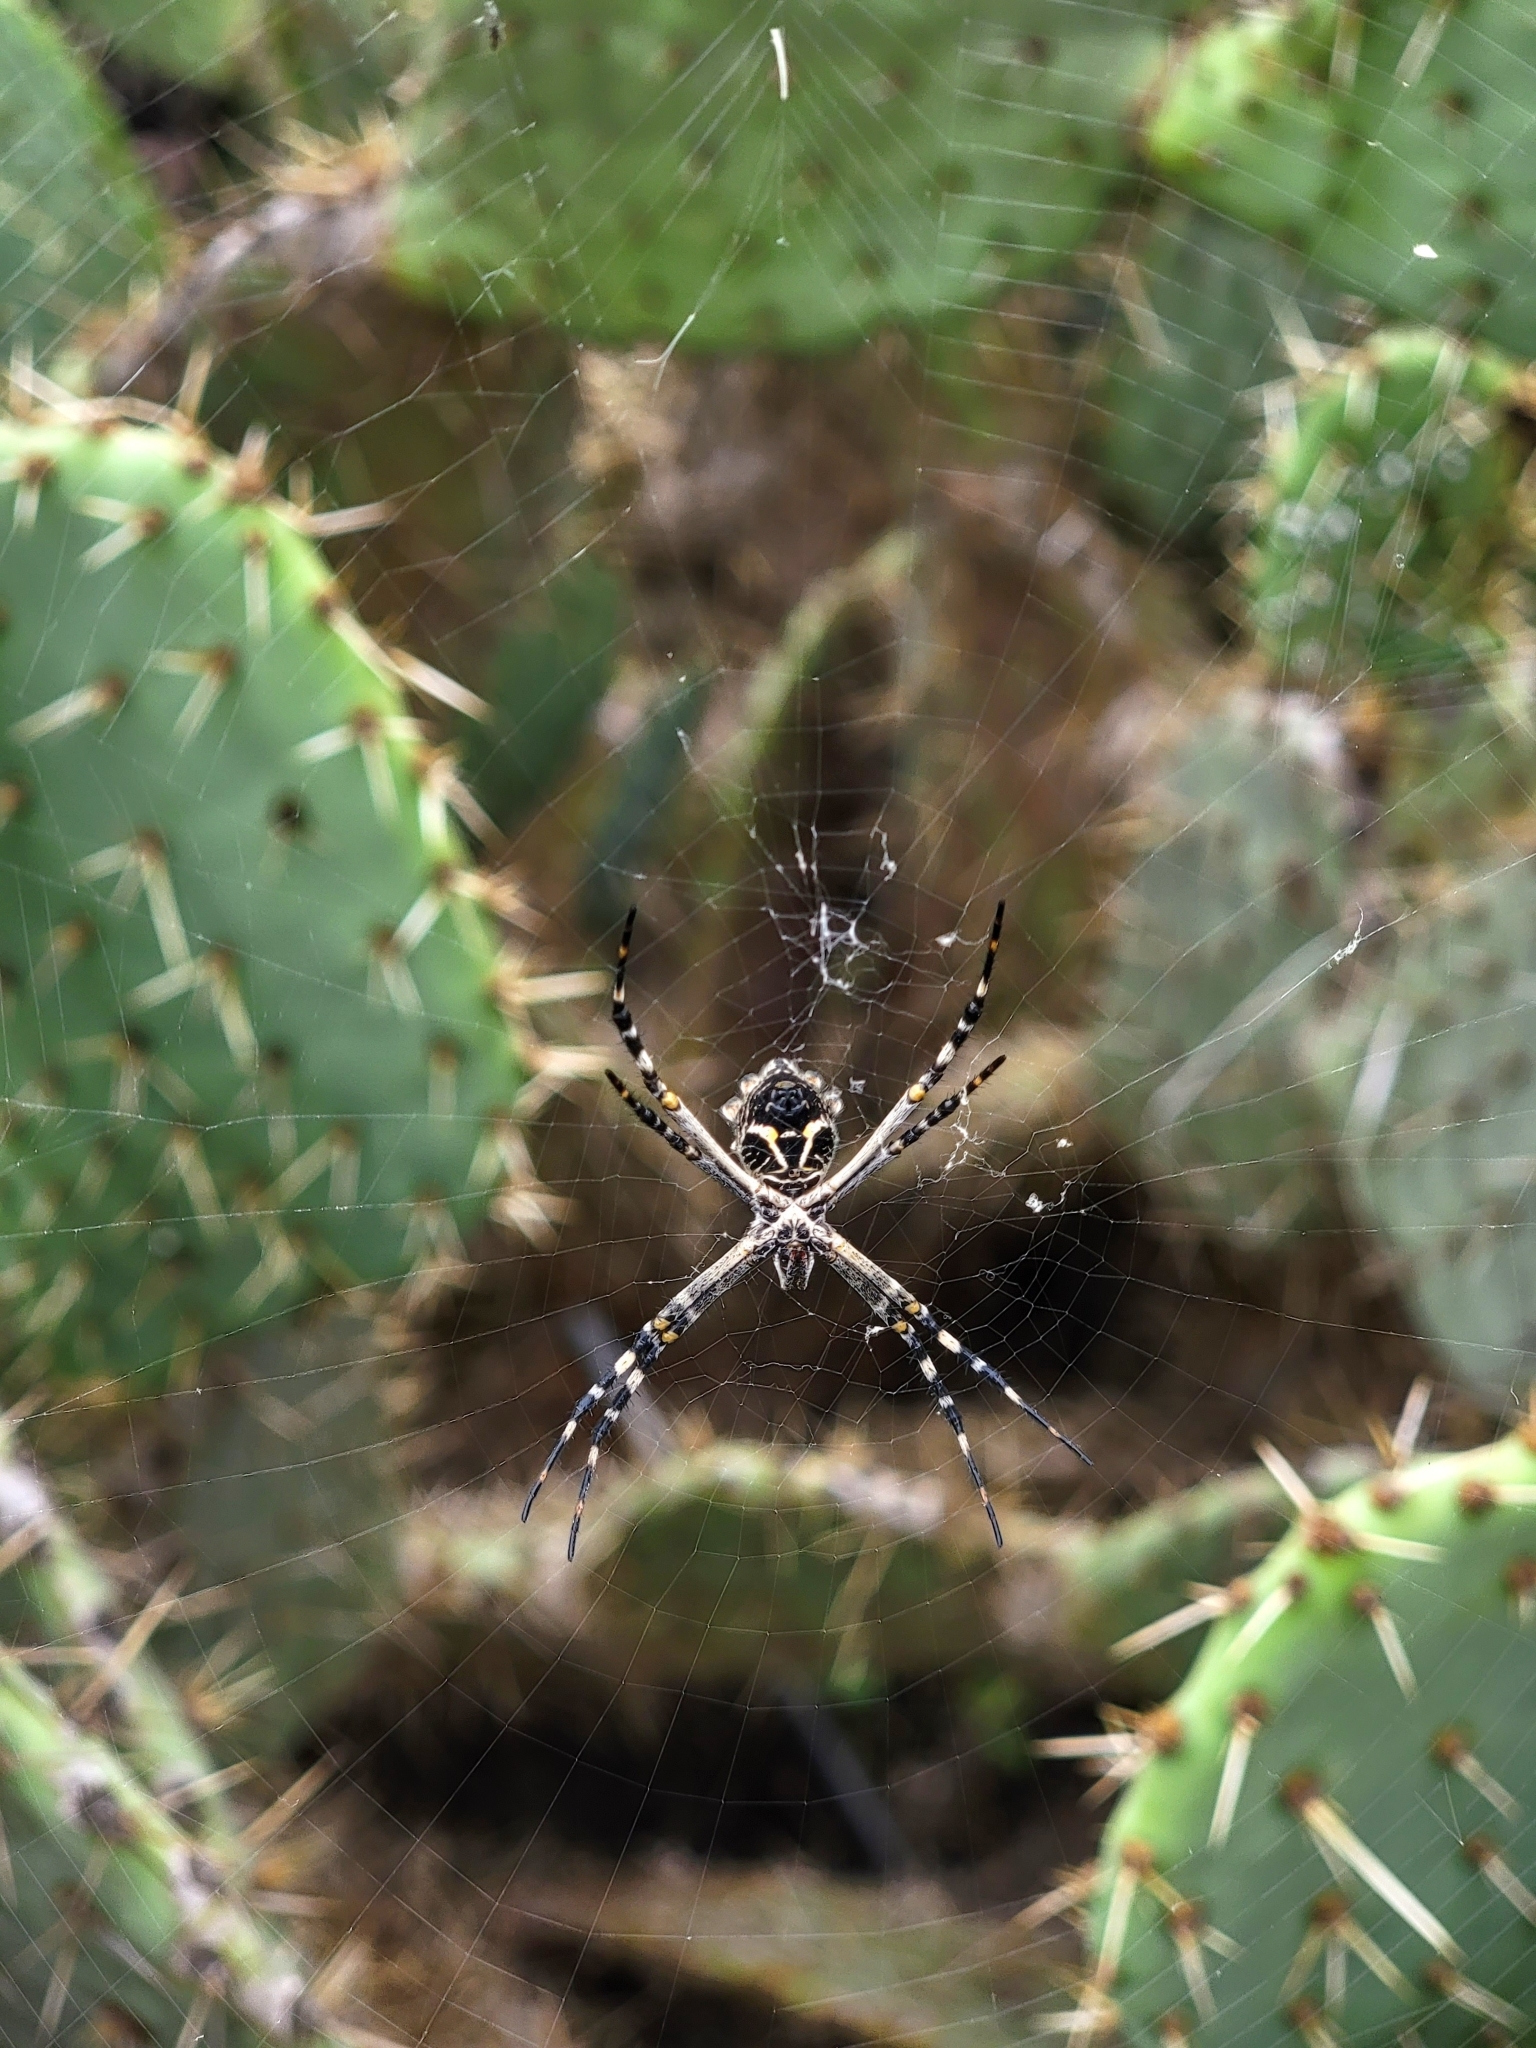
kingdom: Animalia
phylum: Arthropoda
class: Arachnida
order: Araneae
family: Araneidae
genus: Argiope
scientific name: Argiope argentata
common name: Orb weavers
